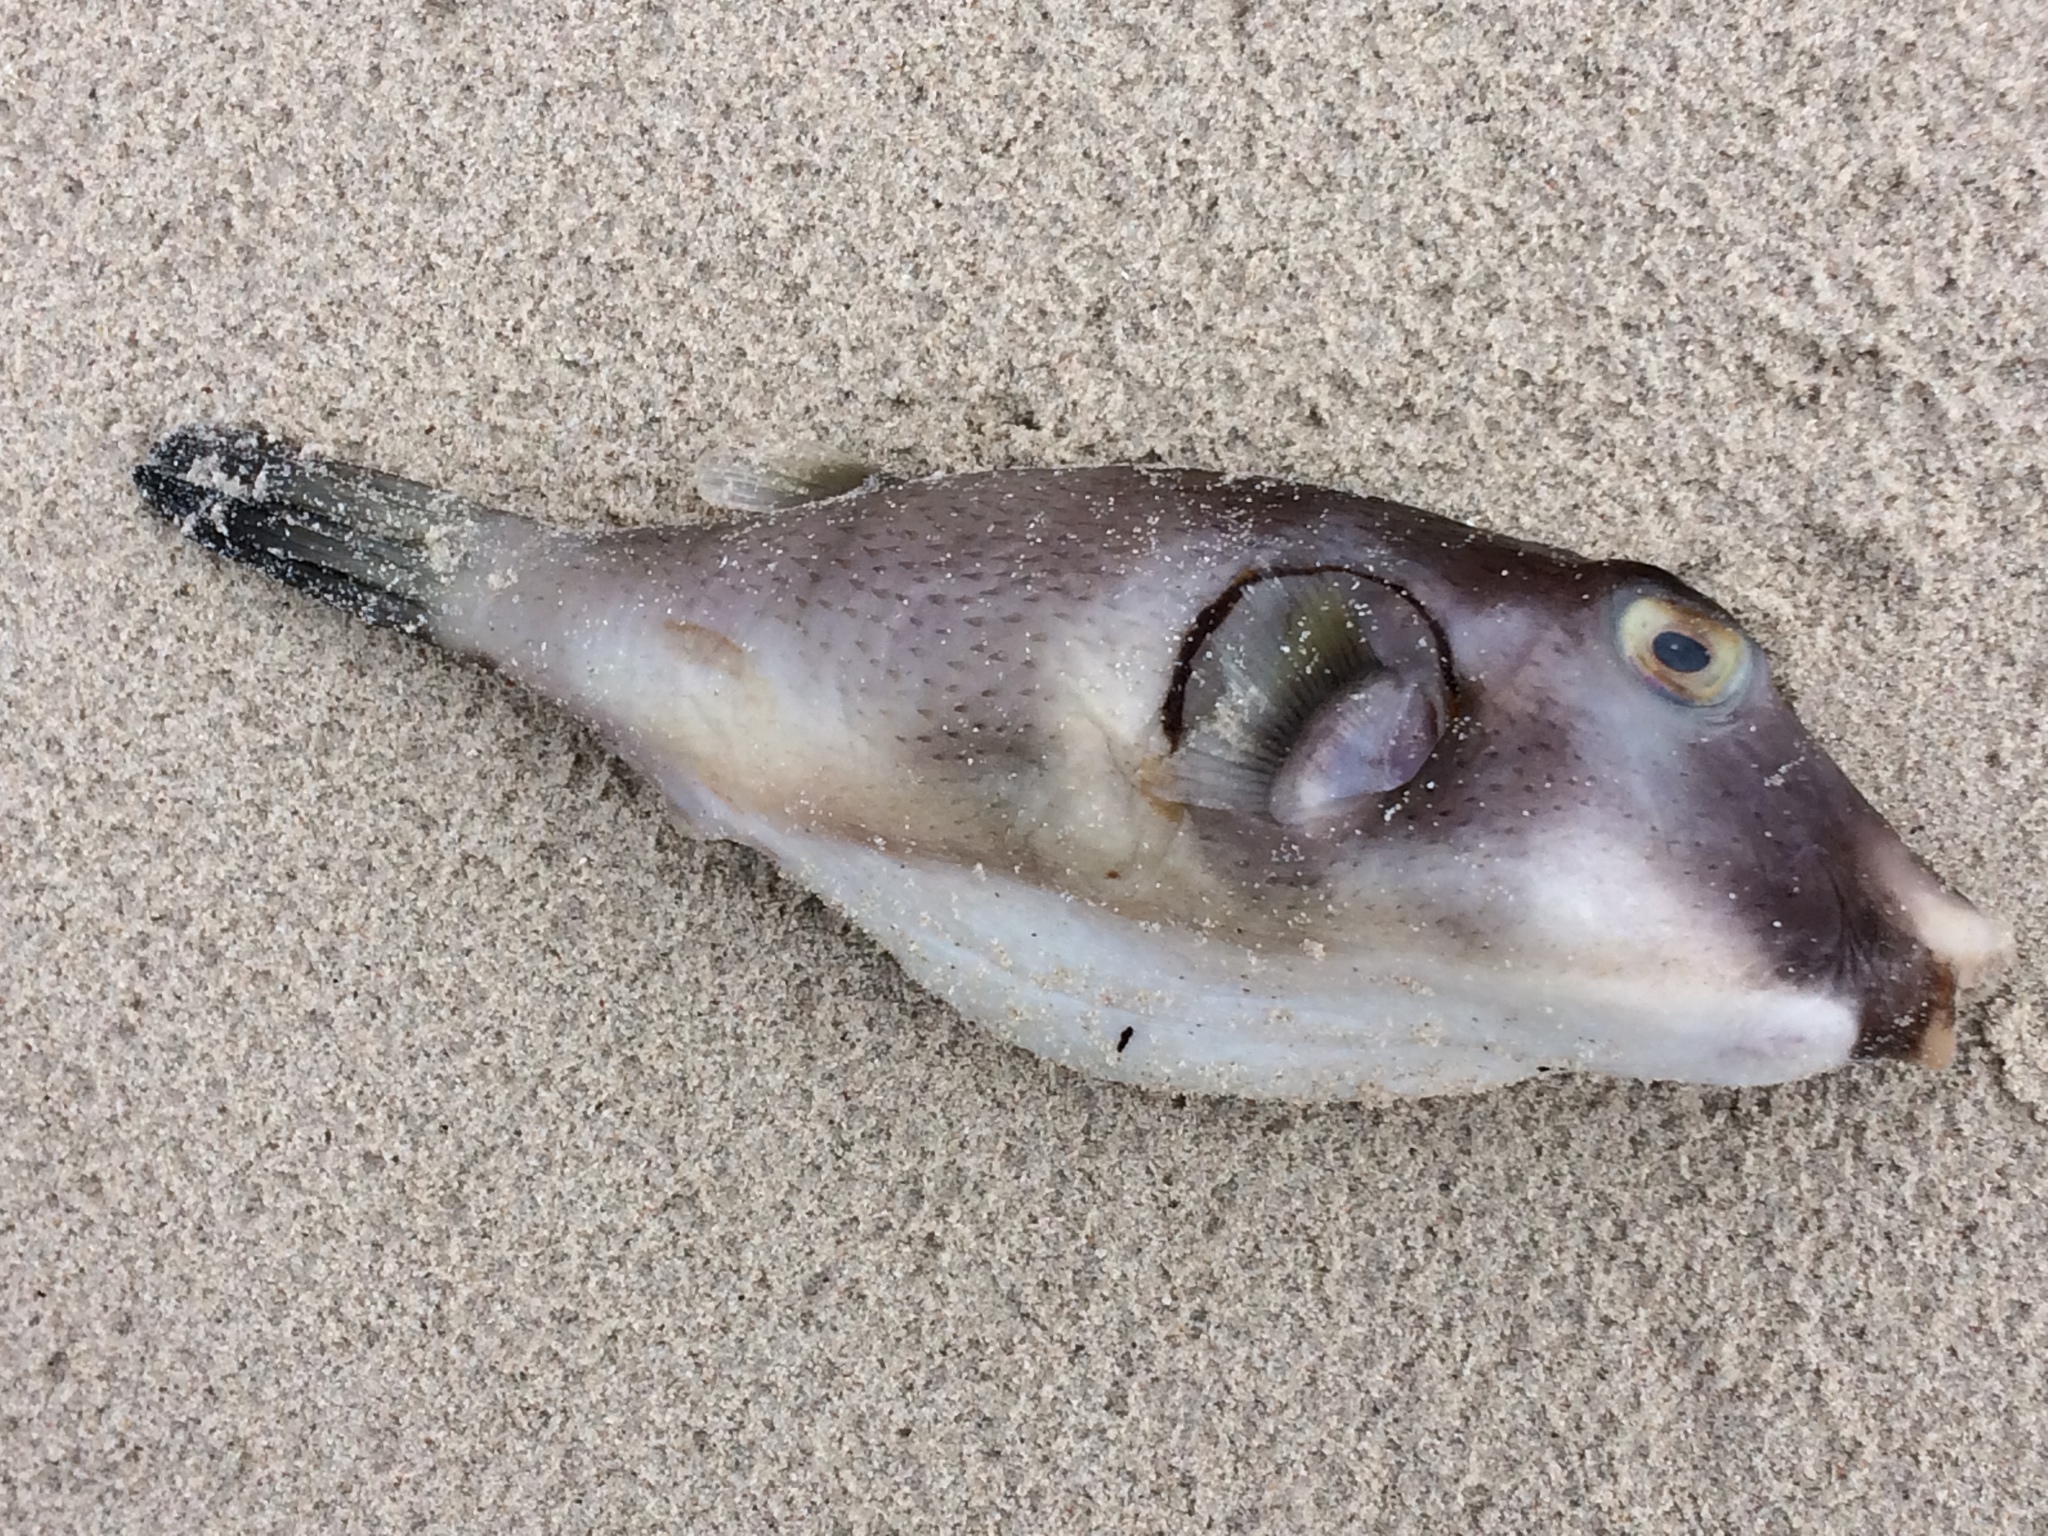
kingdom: Animalia
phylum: Chordata
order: Tetraodontiformes
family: Tetraodontidae
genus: Omegophora
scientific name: Omegophora armilla
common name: Ringed pufferfish
